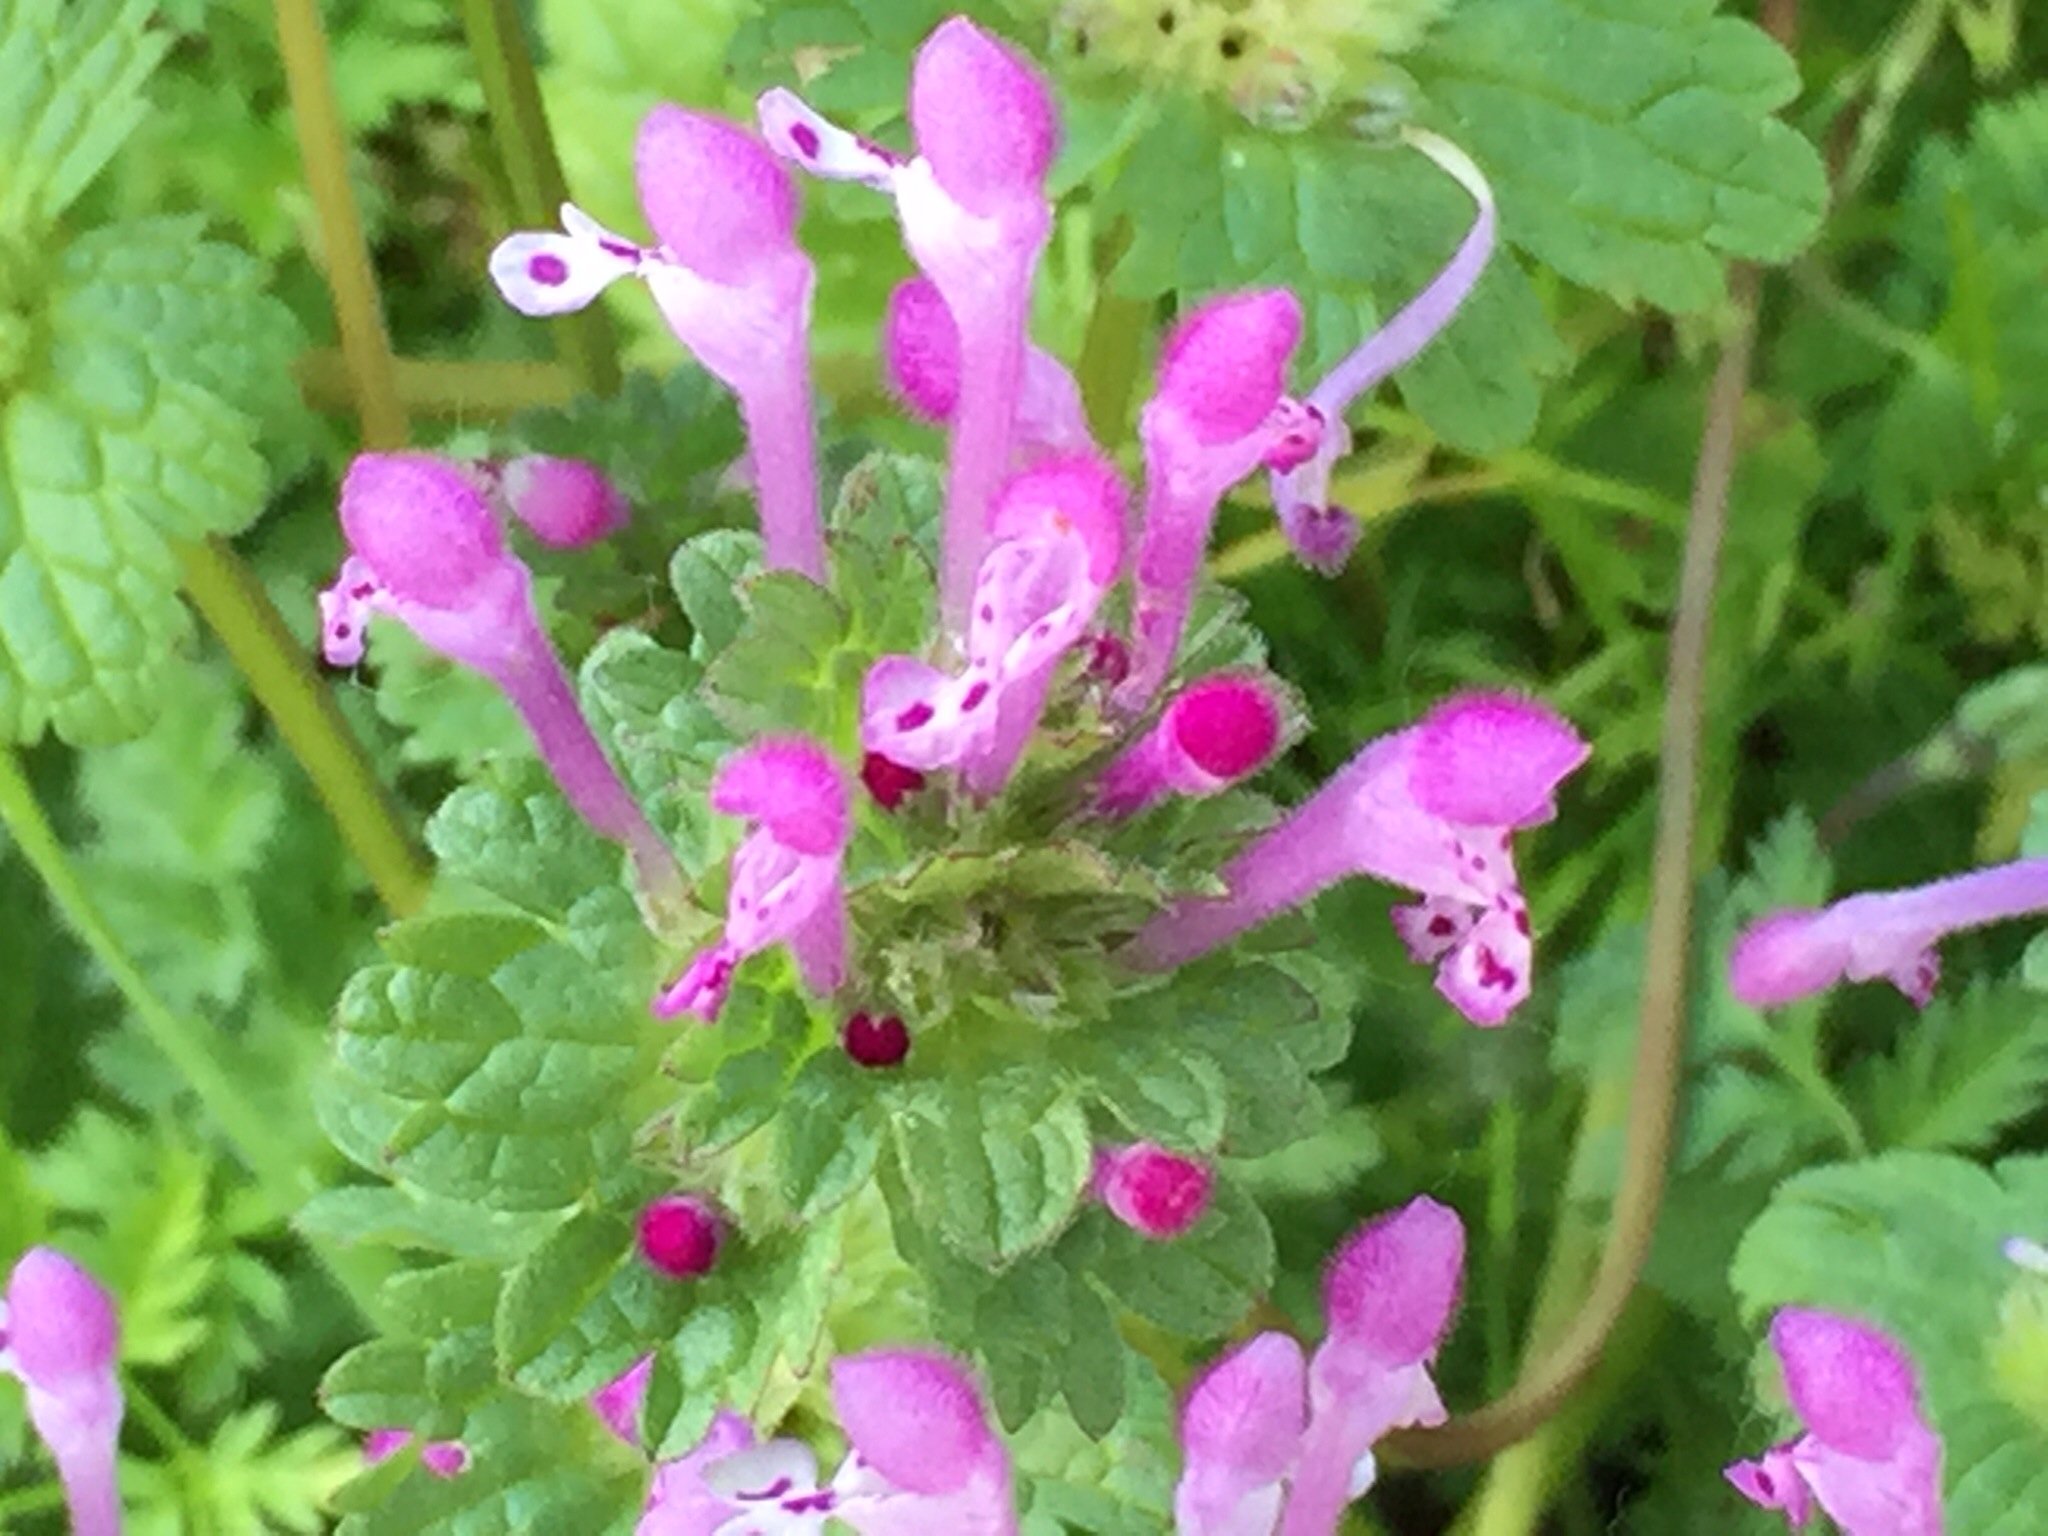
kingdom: Plantae
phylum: Tracheophyta
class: Magnoliopsida
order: Lamiales
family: Lamiaceae
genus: Lamium
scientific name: Lamium amplexicaule
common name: Henbit dead-nettle
